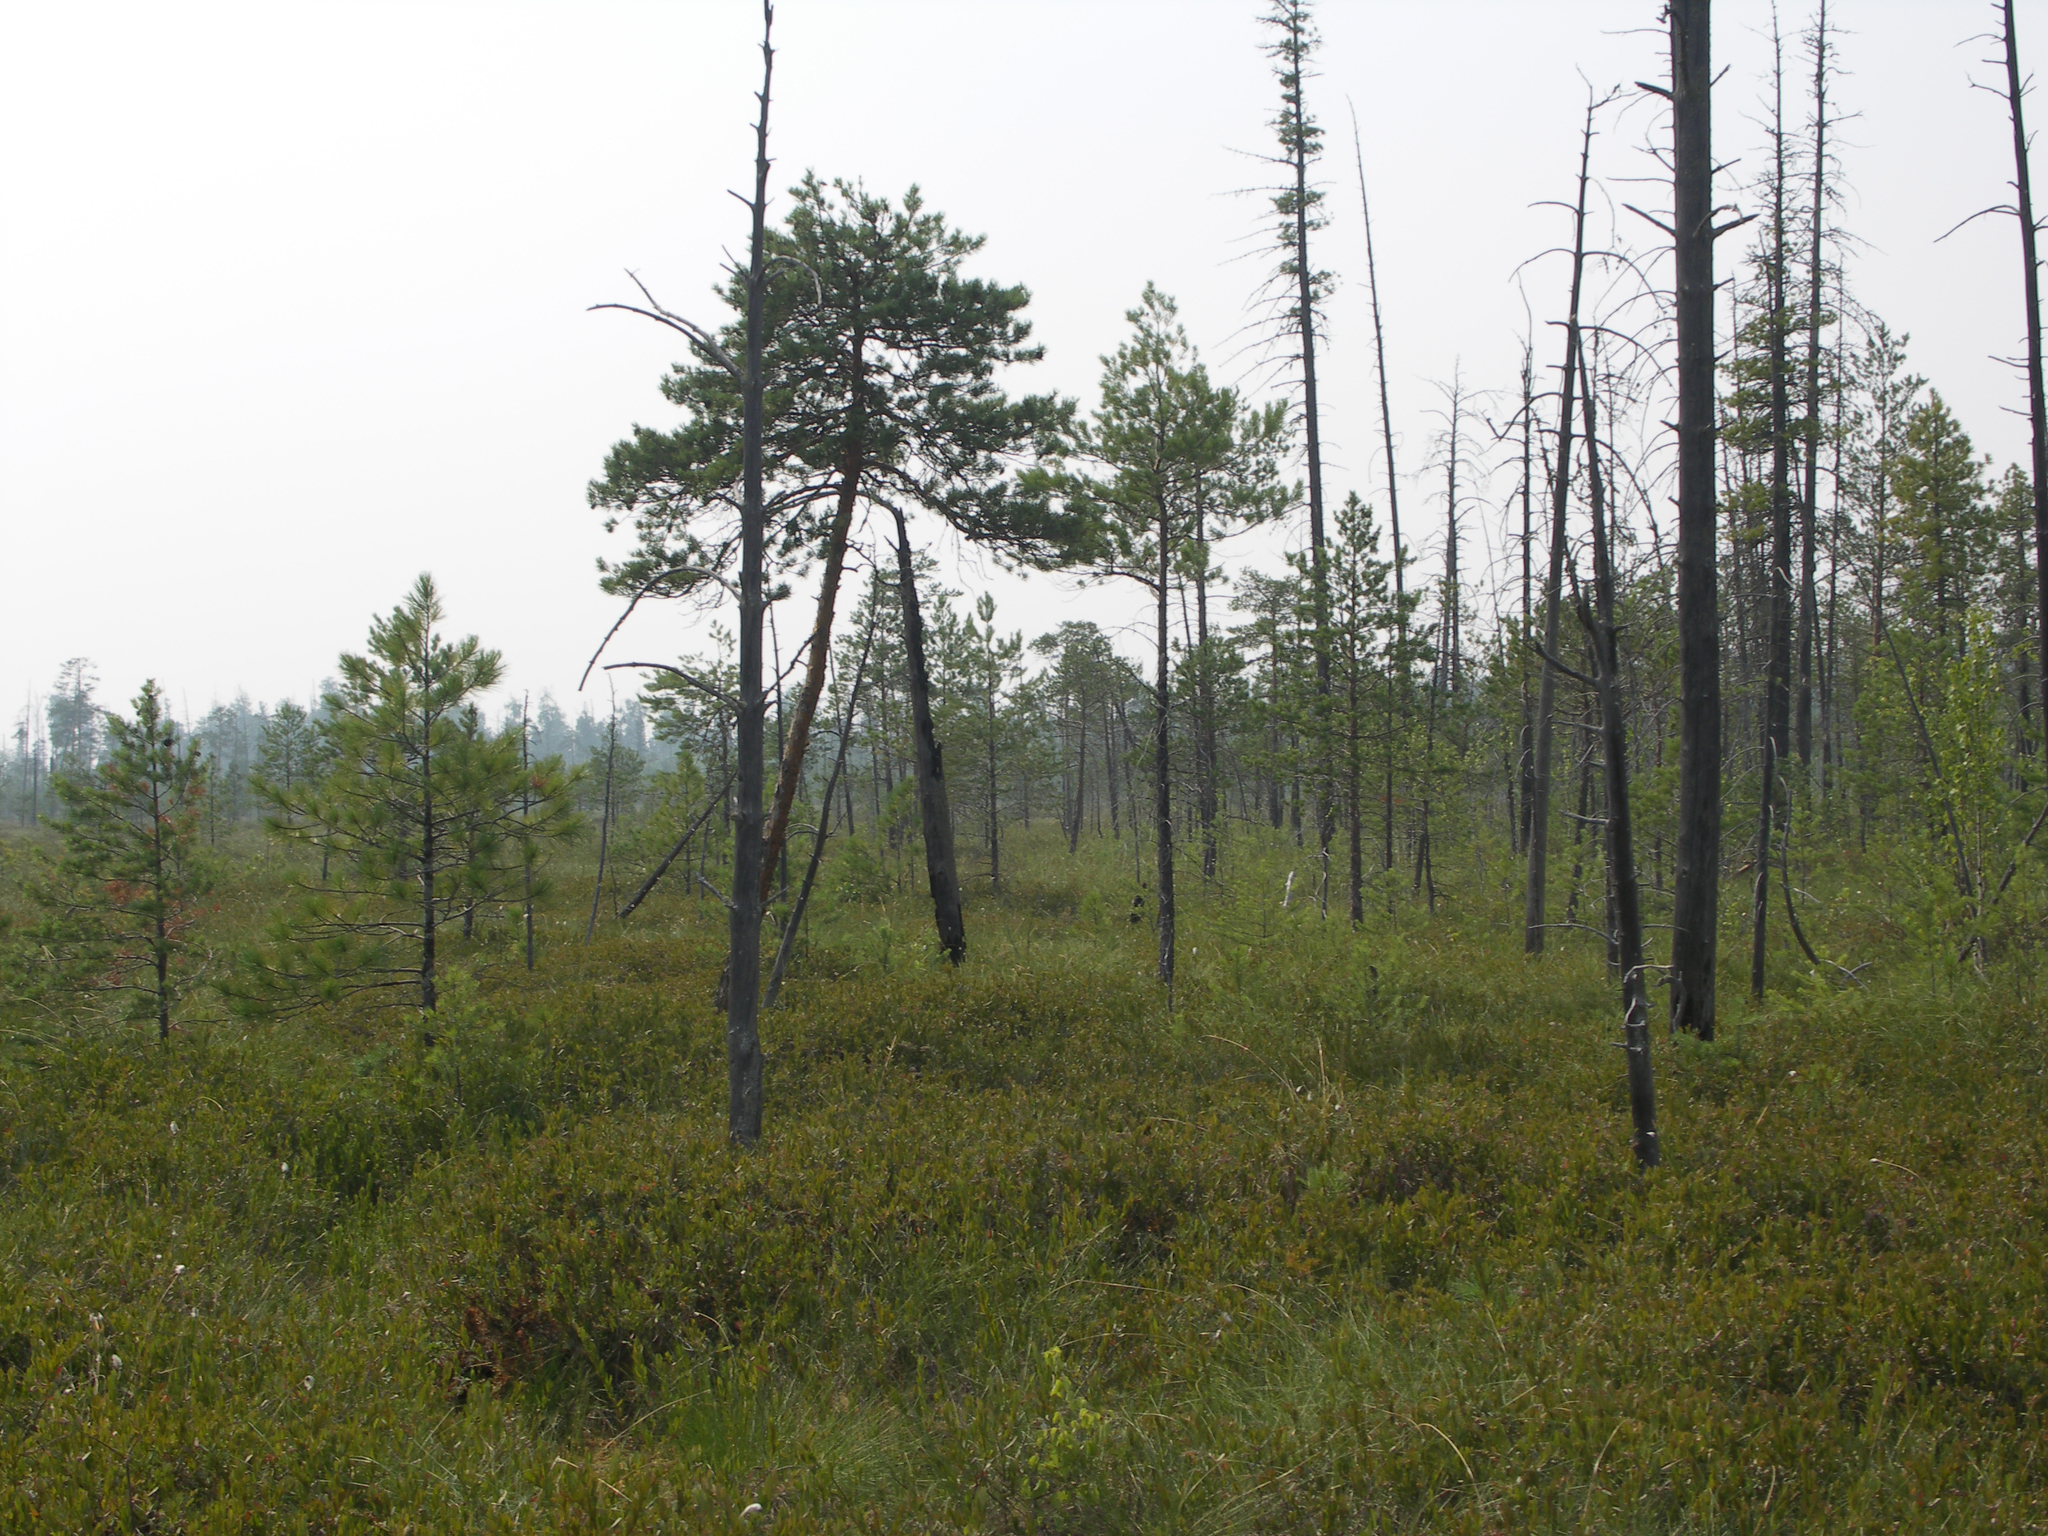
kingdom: Plantae
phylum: Tracheophyta
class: Pinopsida
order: Pinales
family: Pinaceae
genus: Pinus
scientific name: Pinus sylvestris
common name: Scots pine
